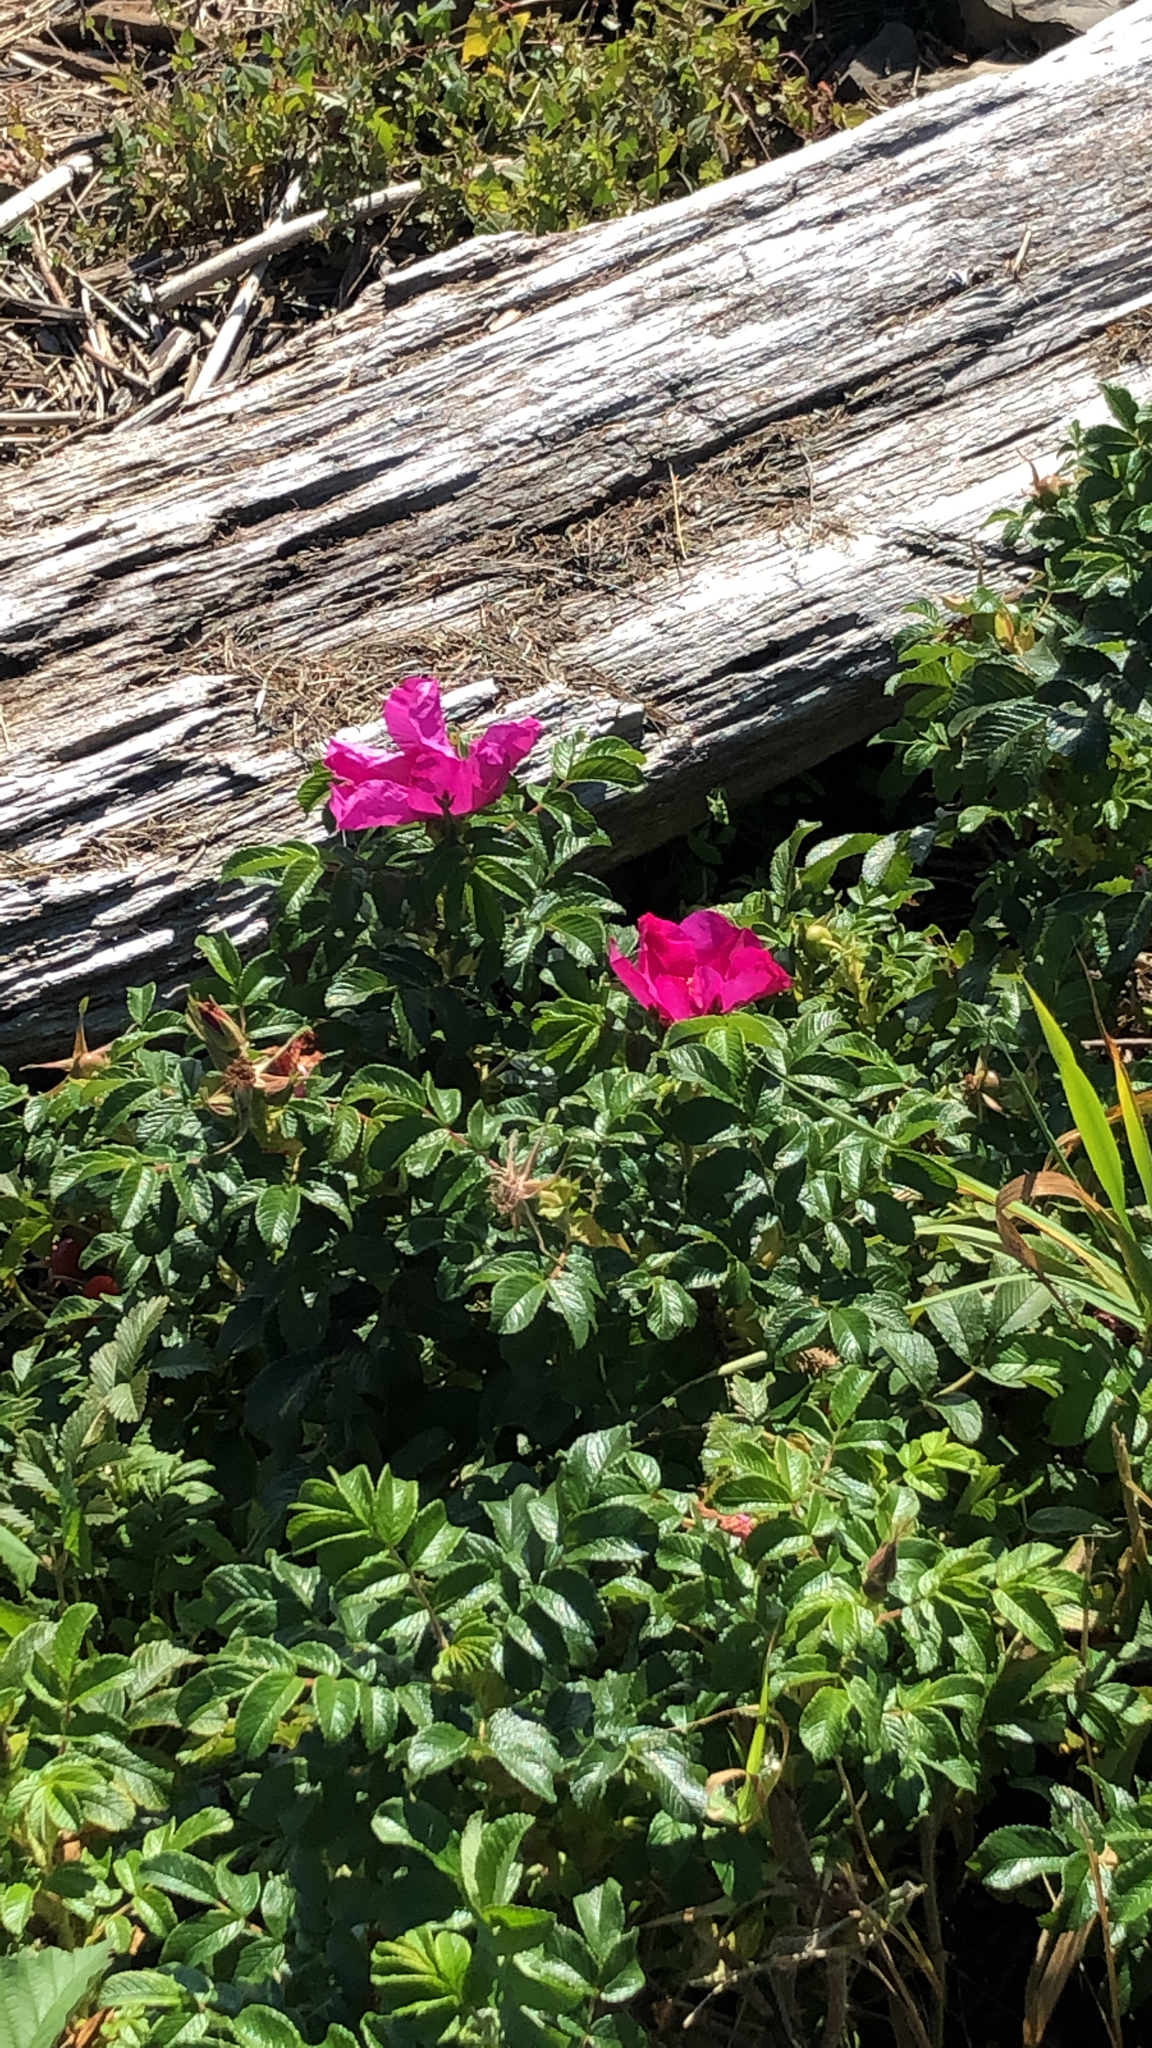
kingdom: Plantae
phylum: Tracheophyta
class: Magnoliopsida
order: Rosales
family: Rosaceae
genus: Rosa
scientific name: Rosa rugosa
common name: Japanese rose
